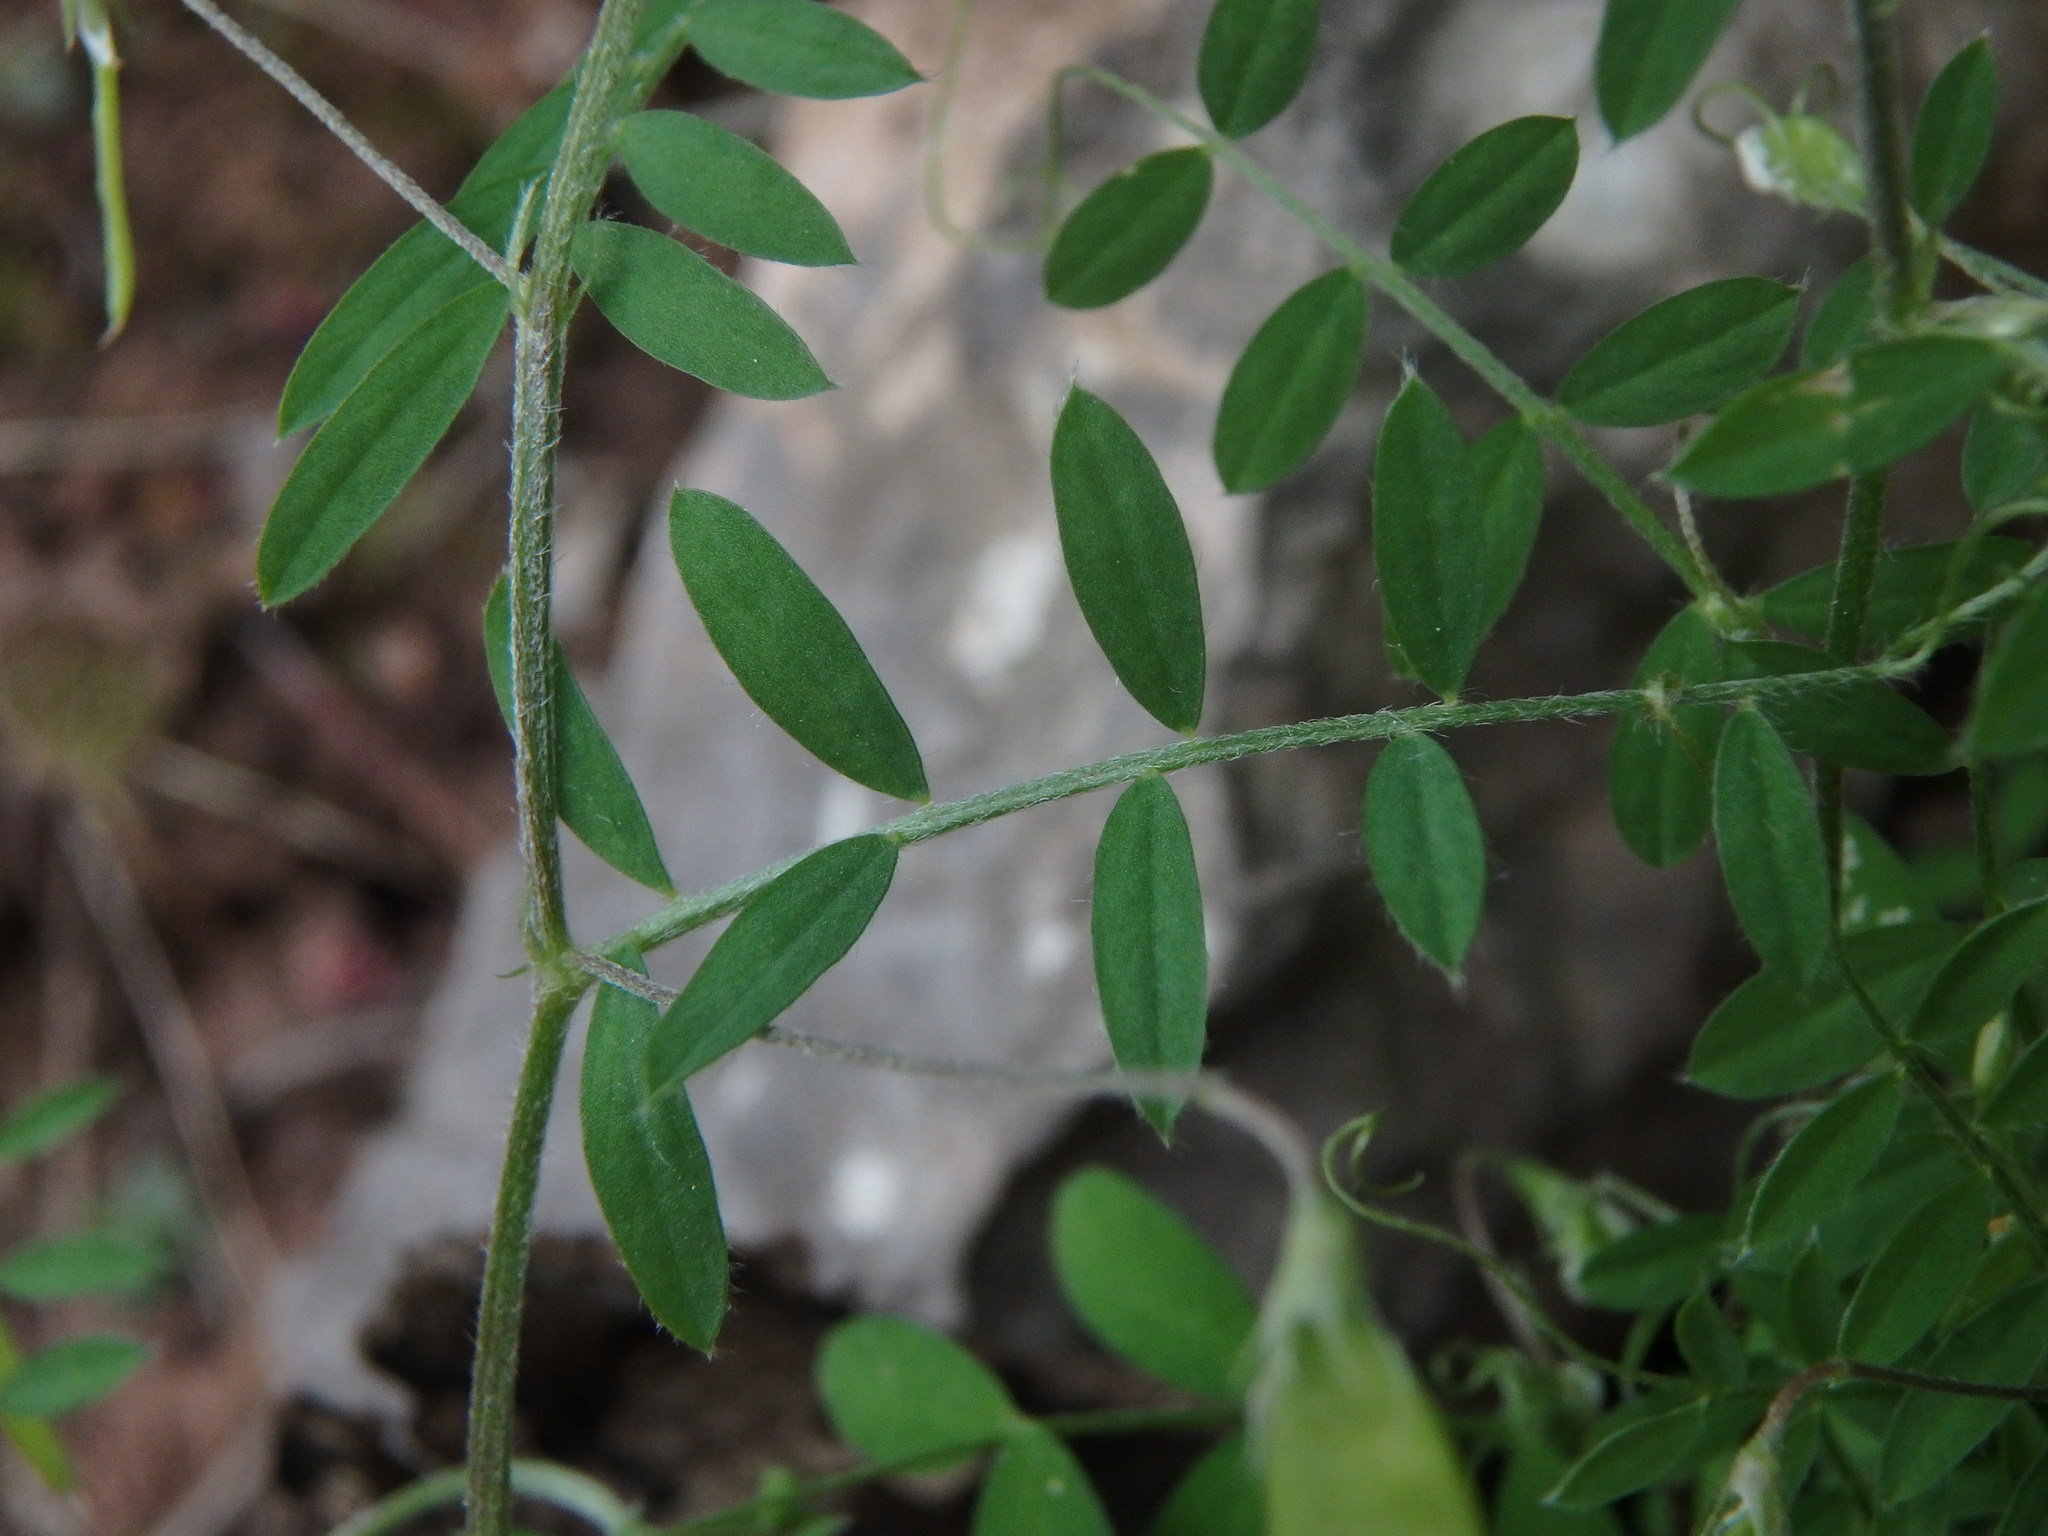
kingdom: Plantae
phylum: Tracheophyta
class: Magnoliopsida
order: Fabales
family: Fabaceae
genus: Vicia
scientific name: Vicia pubescens
